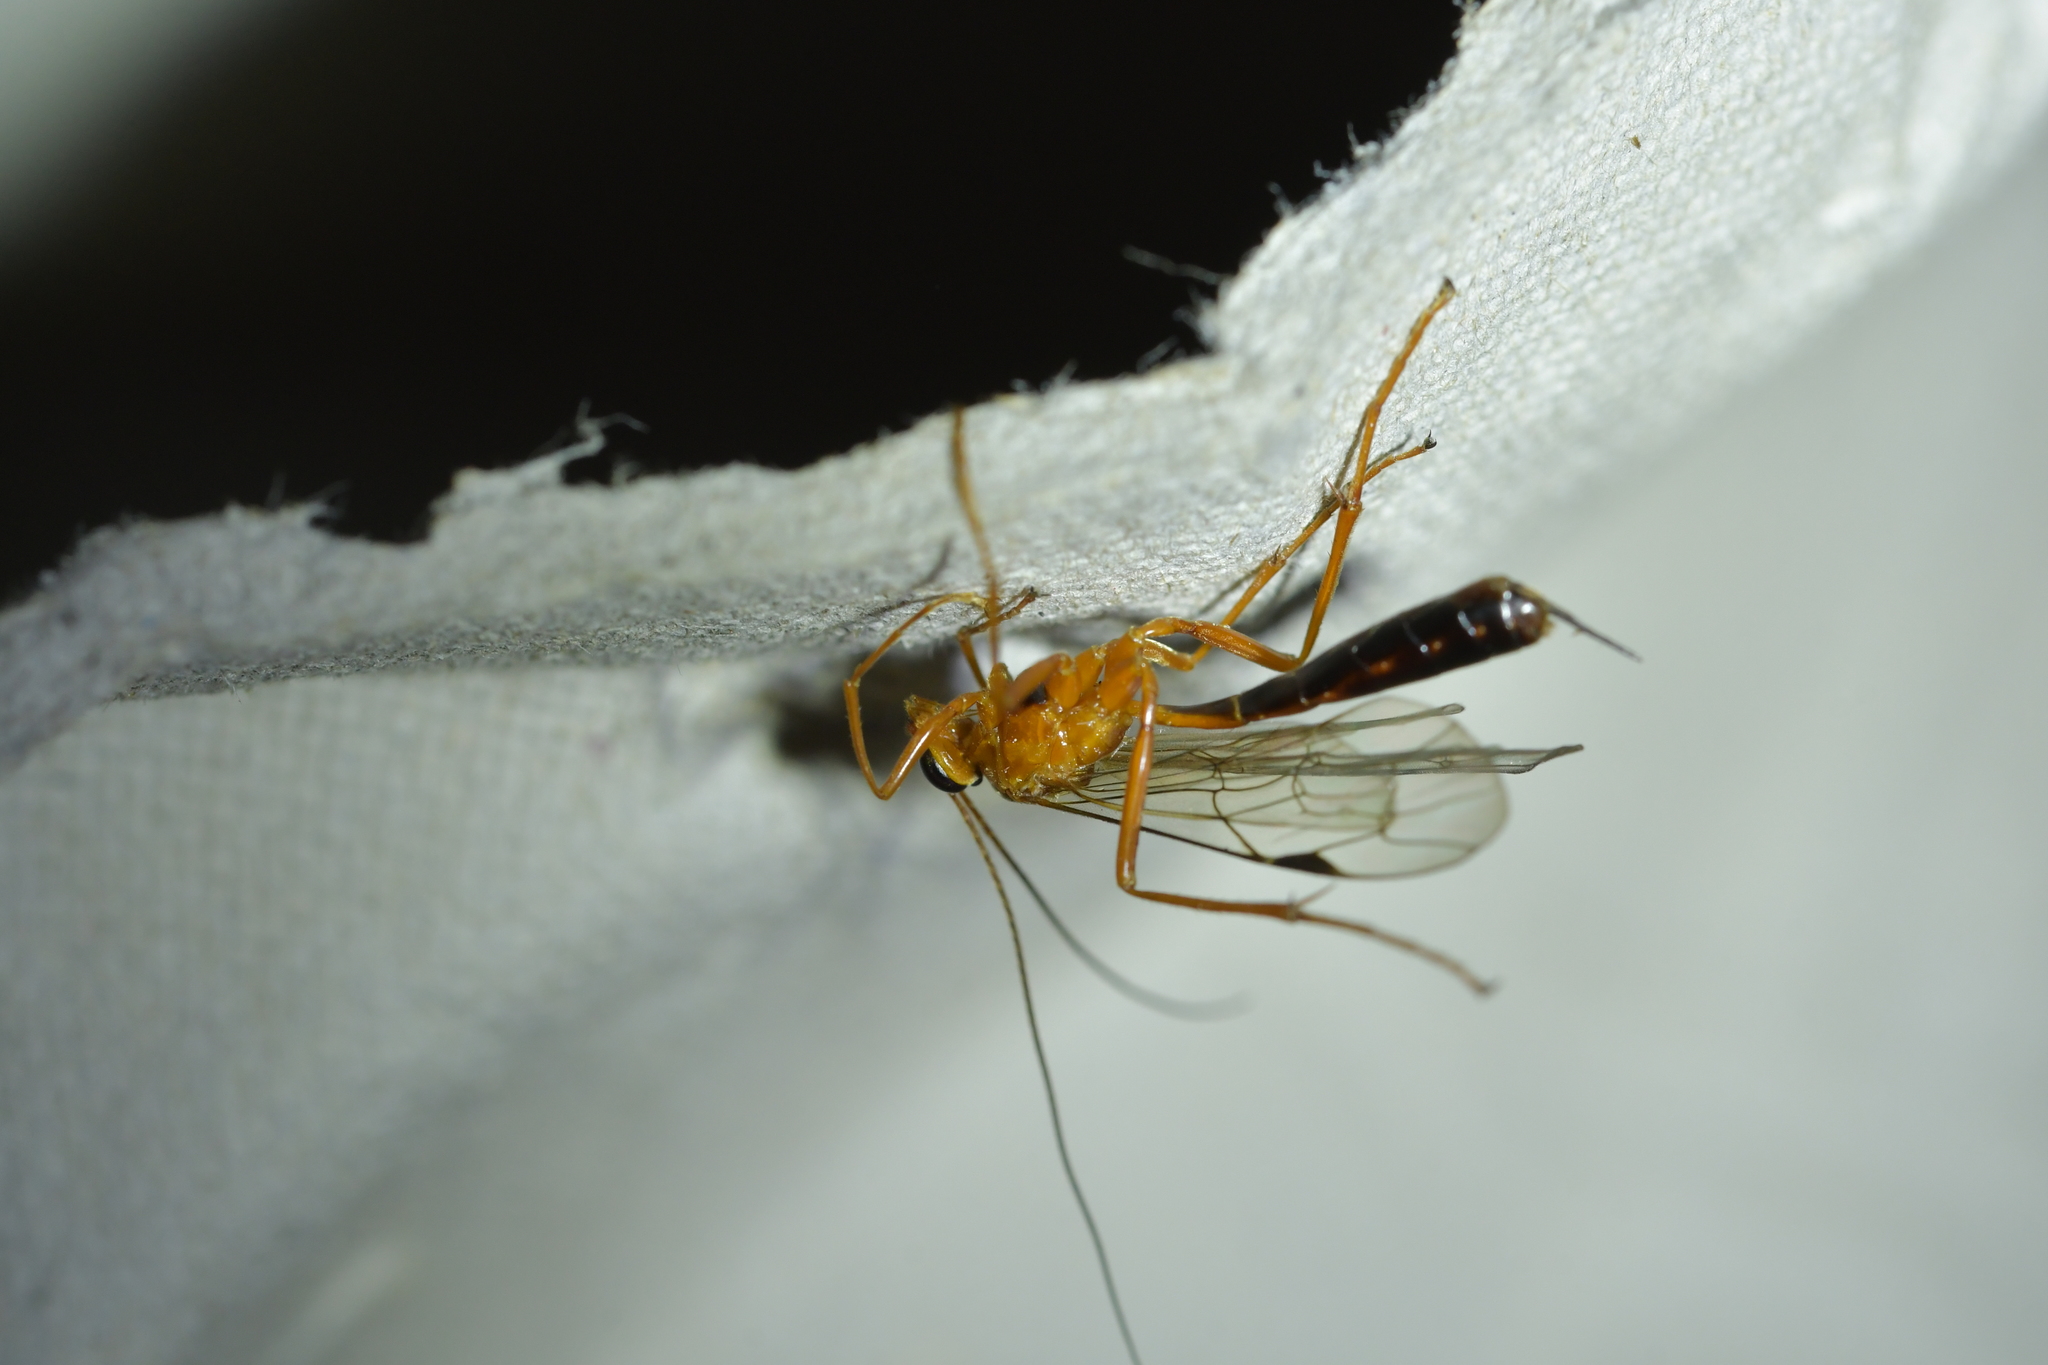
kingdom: Animalia
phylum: Arthropoda
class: Insecta
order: Hymenoptera
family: Ichneumonidae
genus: Netelia
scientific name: Netelia ephippiata
